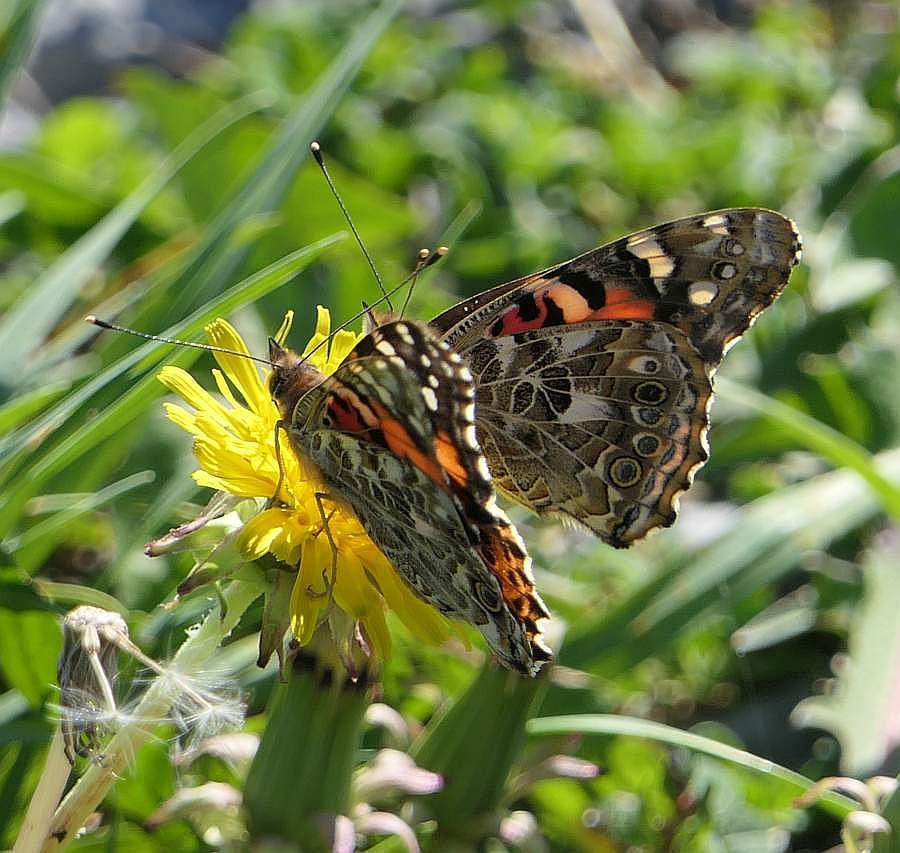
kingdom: Animalia
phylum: Arthropoda
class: Insecta
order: Lepidoptera
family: Nymphalidae
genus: Vanessa
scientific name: Vanessa cardui
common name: Painted lady
